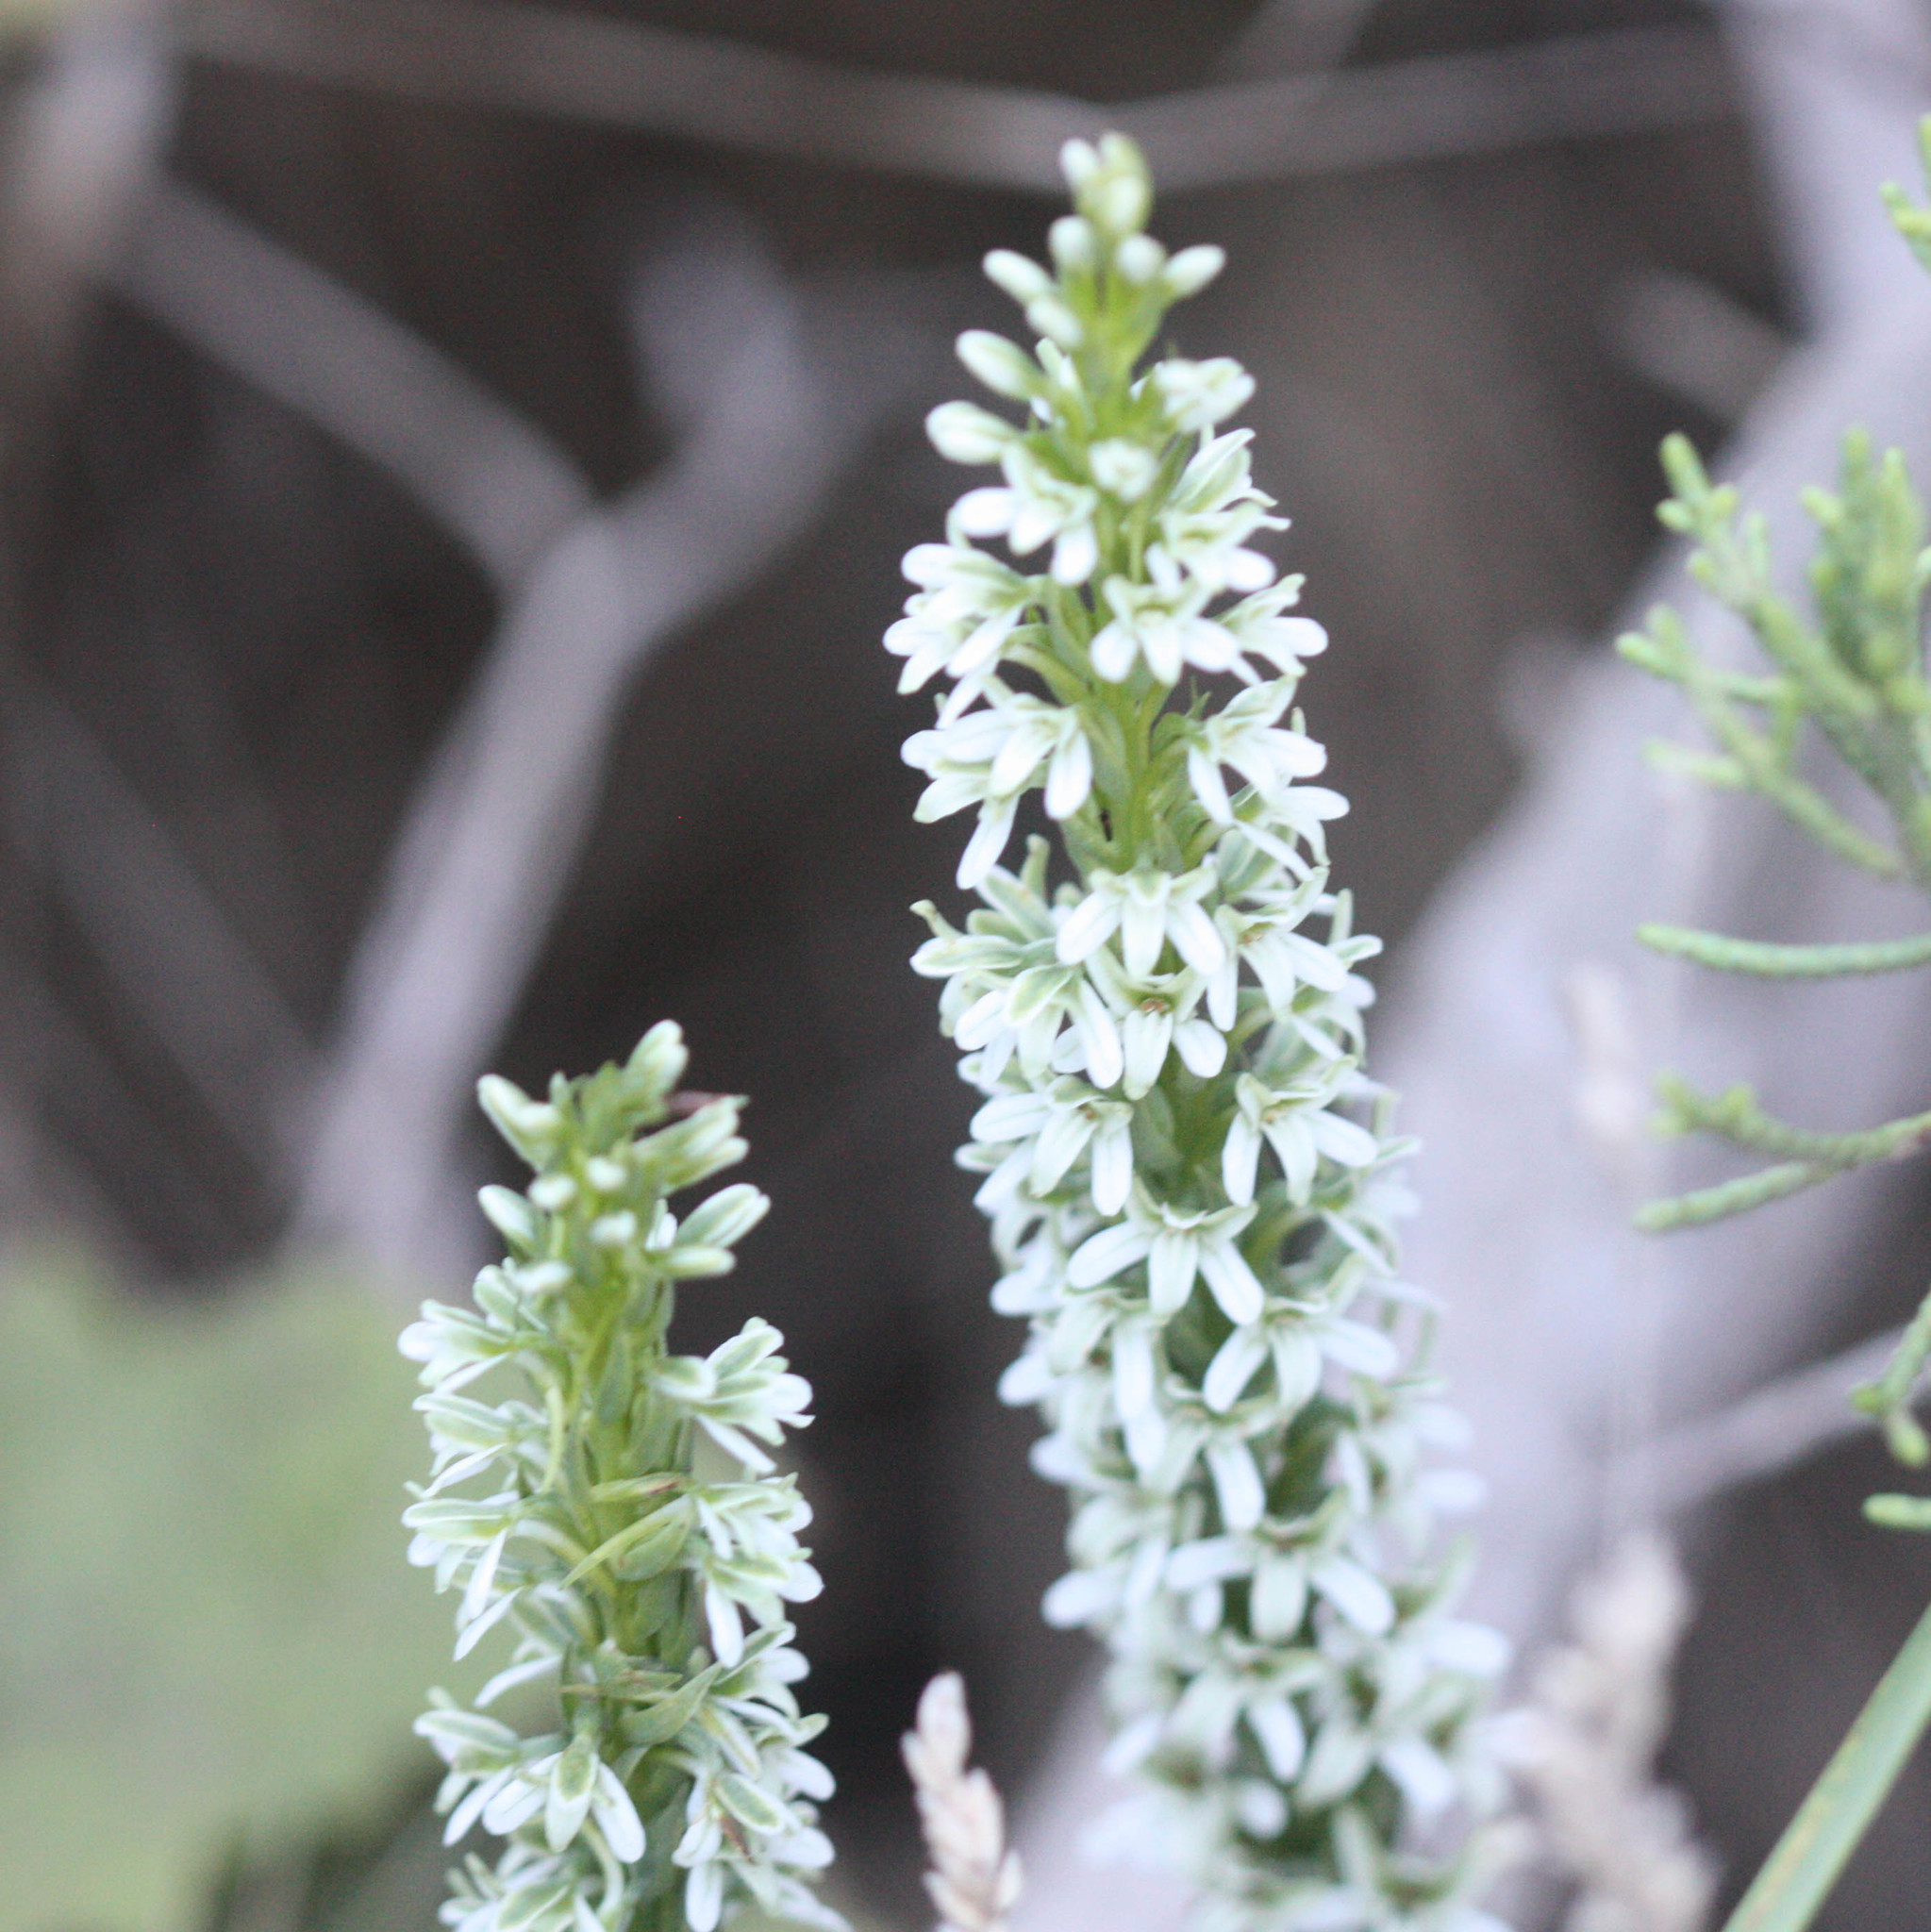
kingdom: Plantae
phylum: Tracheophyta
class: Liliopsida
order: Asparagales
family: Orchidaceae
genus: Platanthera
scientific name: Platanthera elegans
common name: Coast piperia
